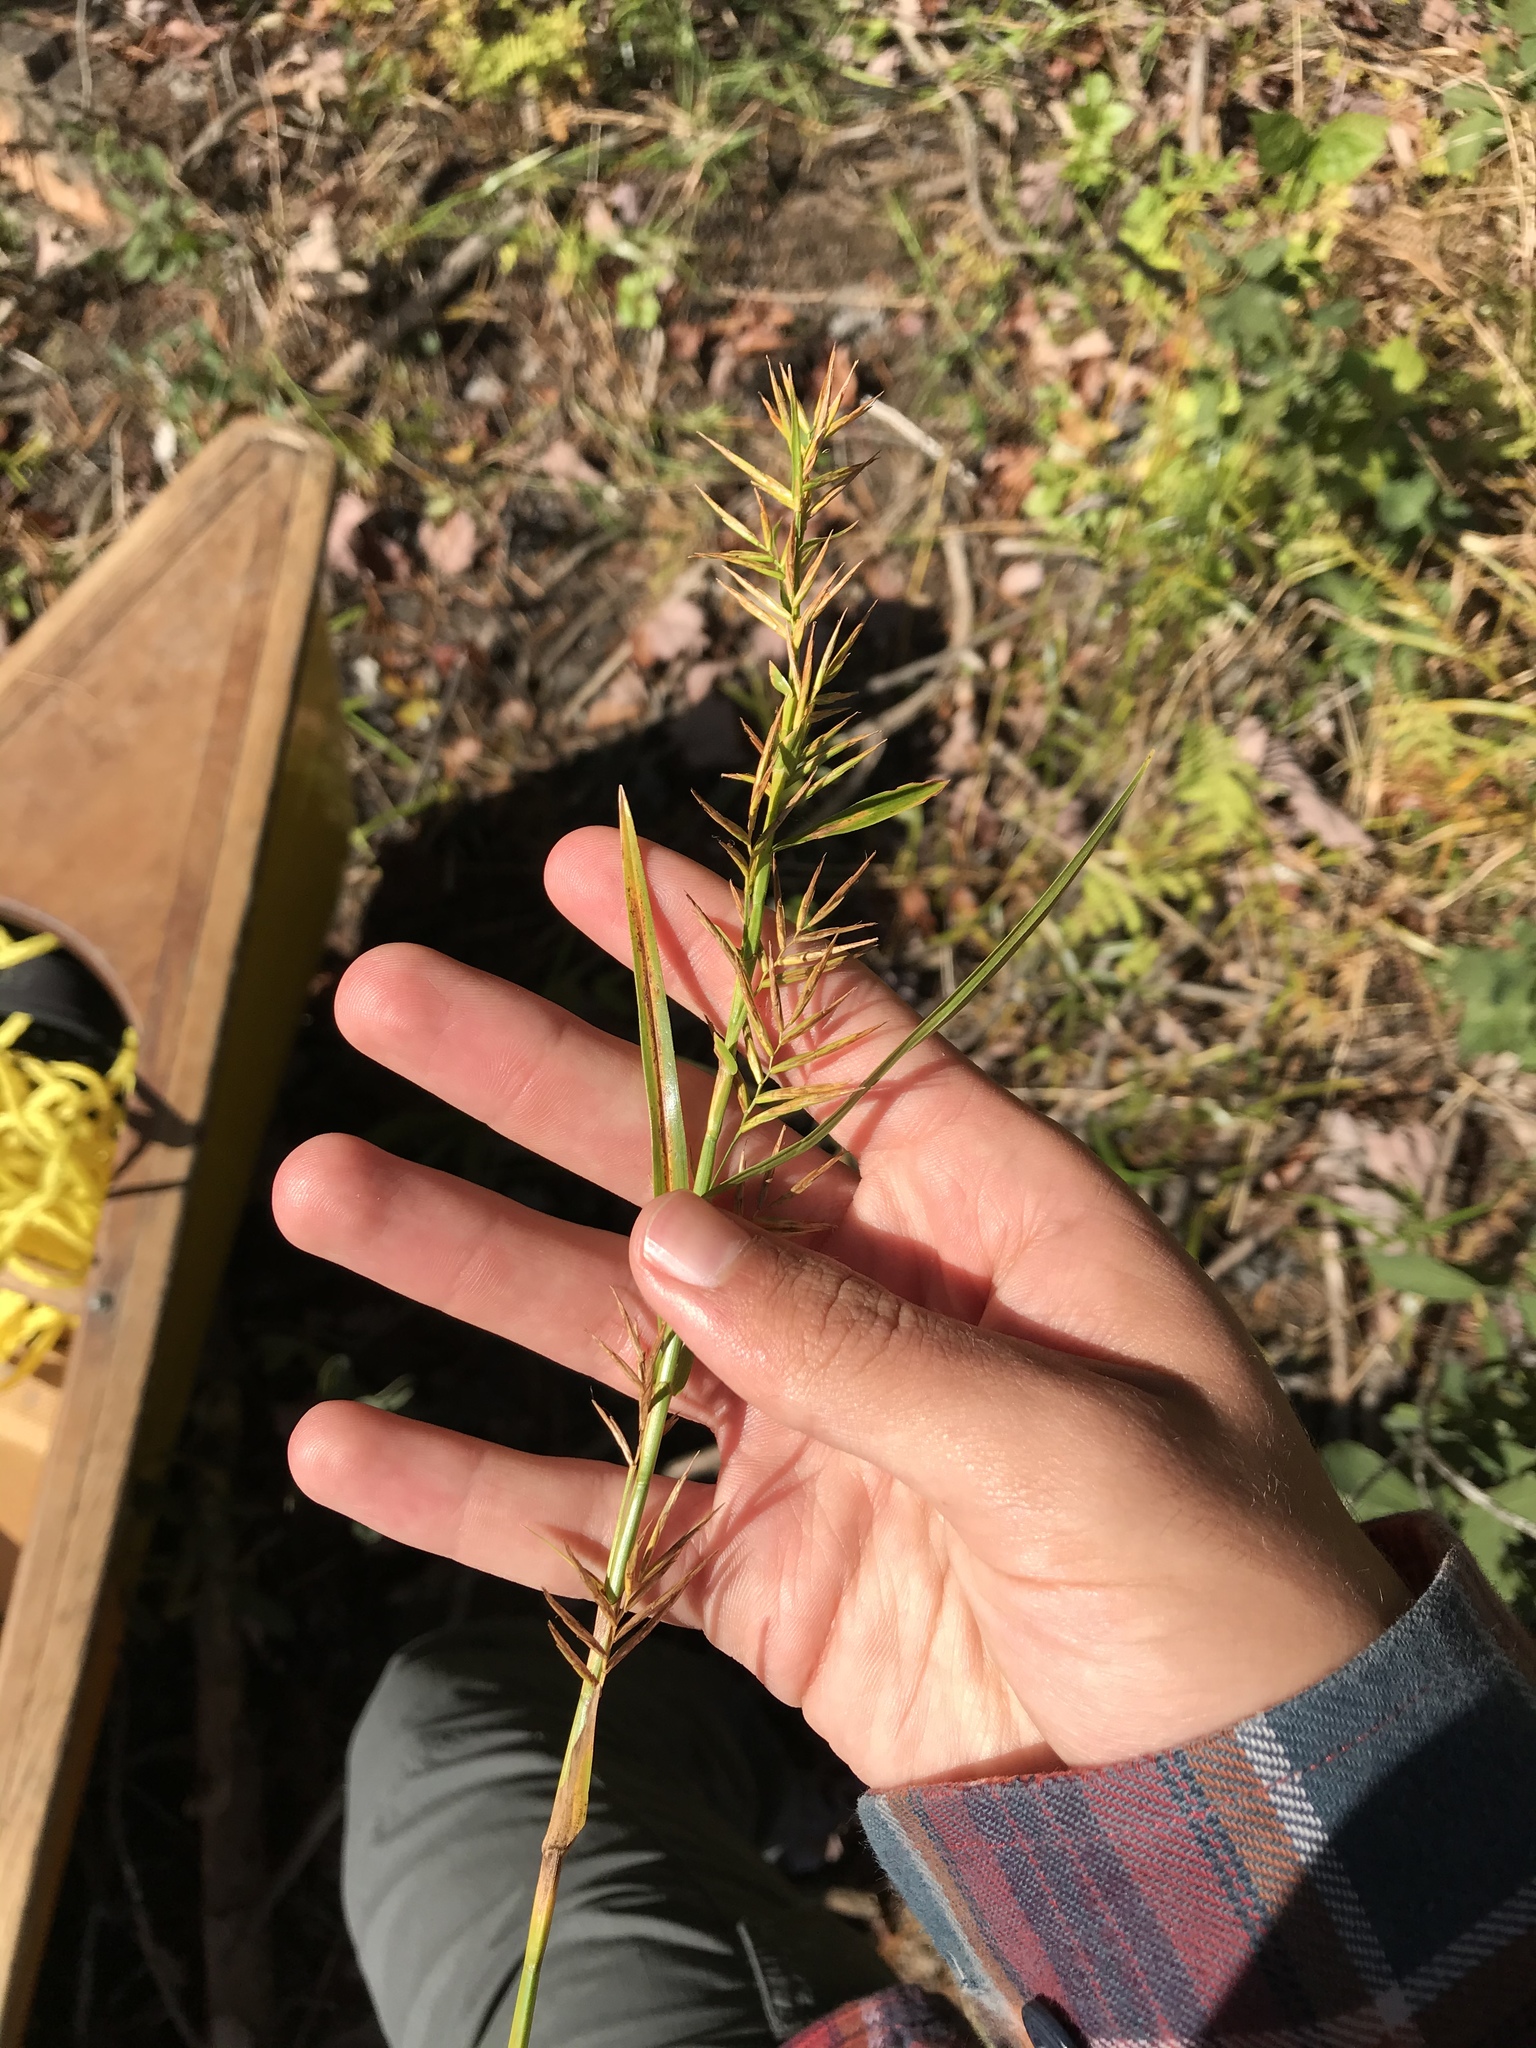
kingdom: Plantae
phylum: Tracheophyta
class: Liliopsida
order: Poales
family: Cyperaceae
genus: Dulichium
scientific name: Dulichium arundinaceum
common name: Three-way sedge
